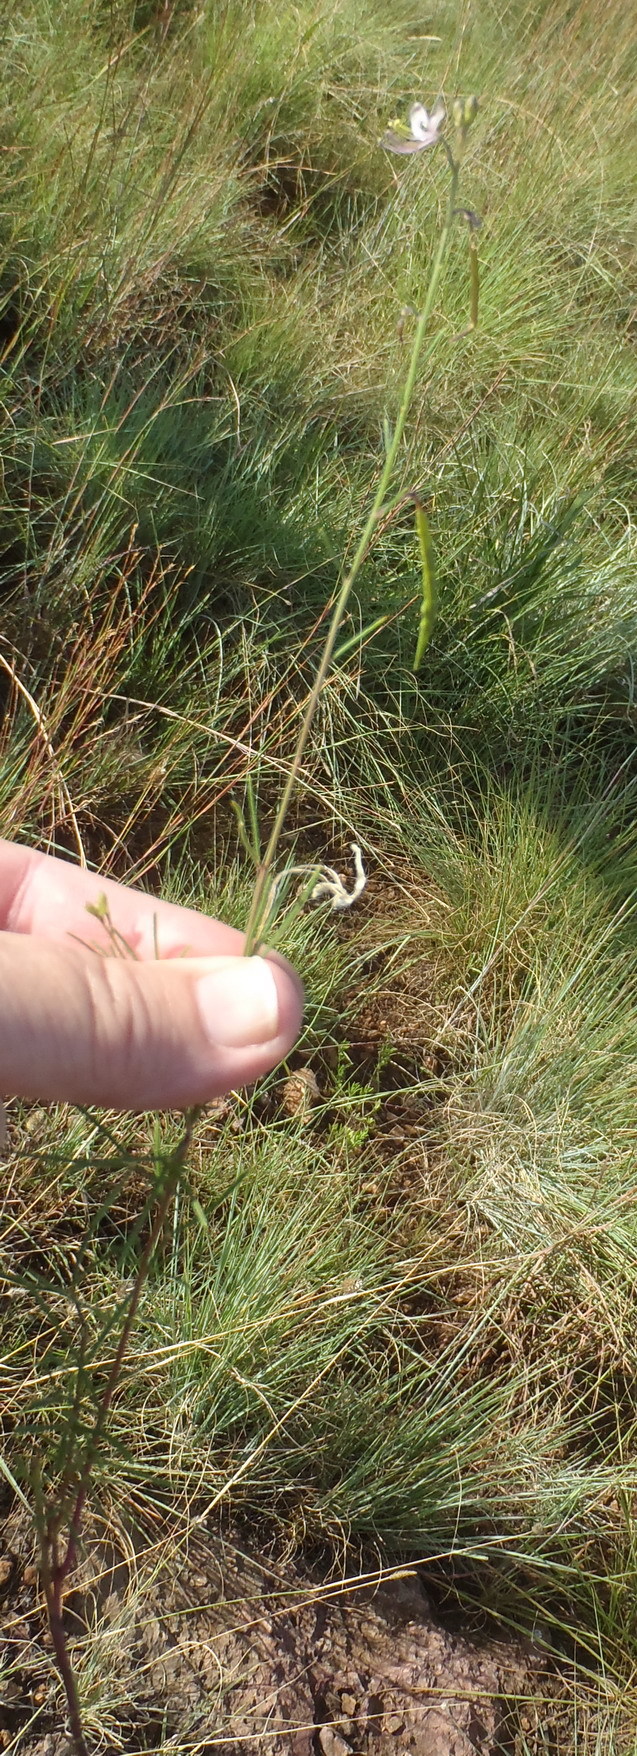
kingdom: Plantae
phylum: Tracheophyta
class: Magnoliopsida
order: Brassicales
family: Cleomaceae
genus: Sieruela
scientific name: Sieruela conrathii
